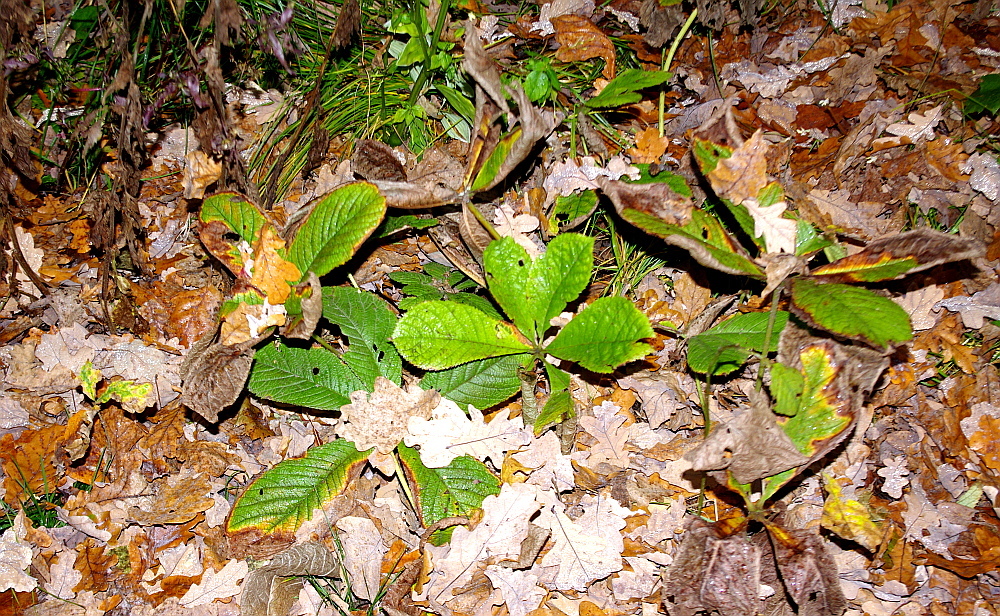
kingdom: Plantae
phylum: Tracheophyta
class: Magnoliopsida
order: Sapindales
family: Sapindaceae
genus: Aesculus
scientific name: Aesculus hippocastanum
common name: Horse-chestnut
